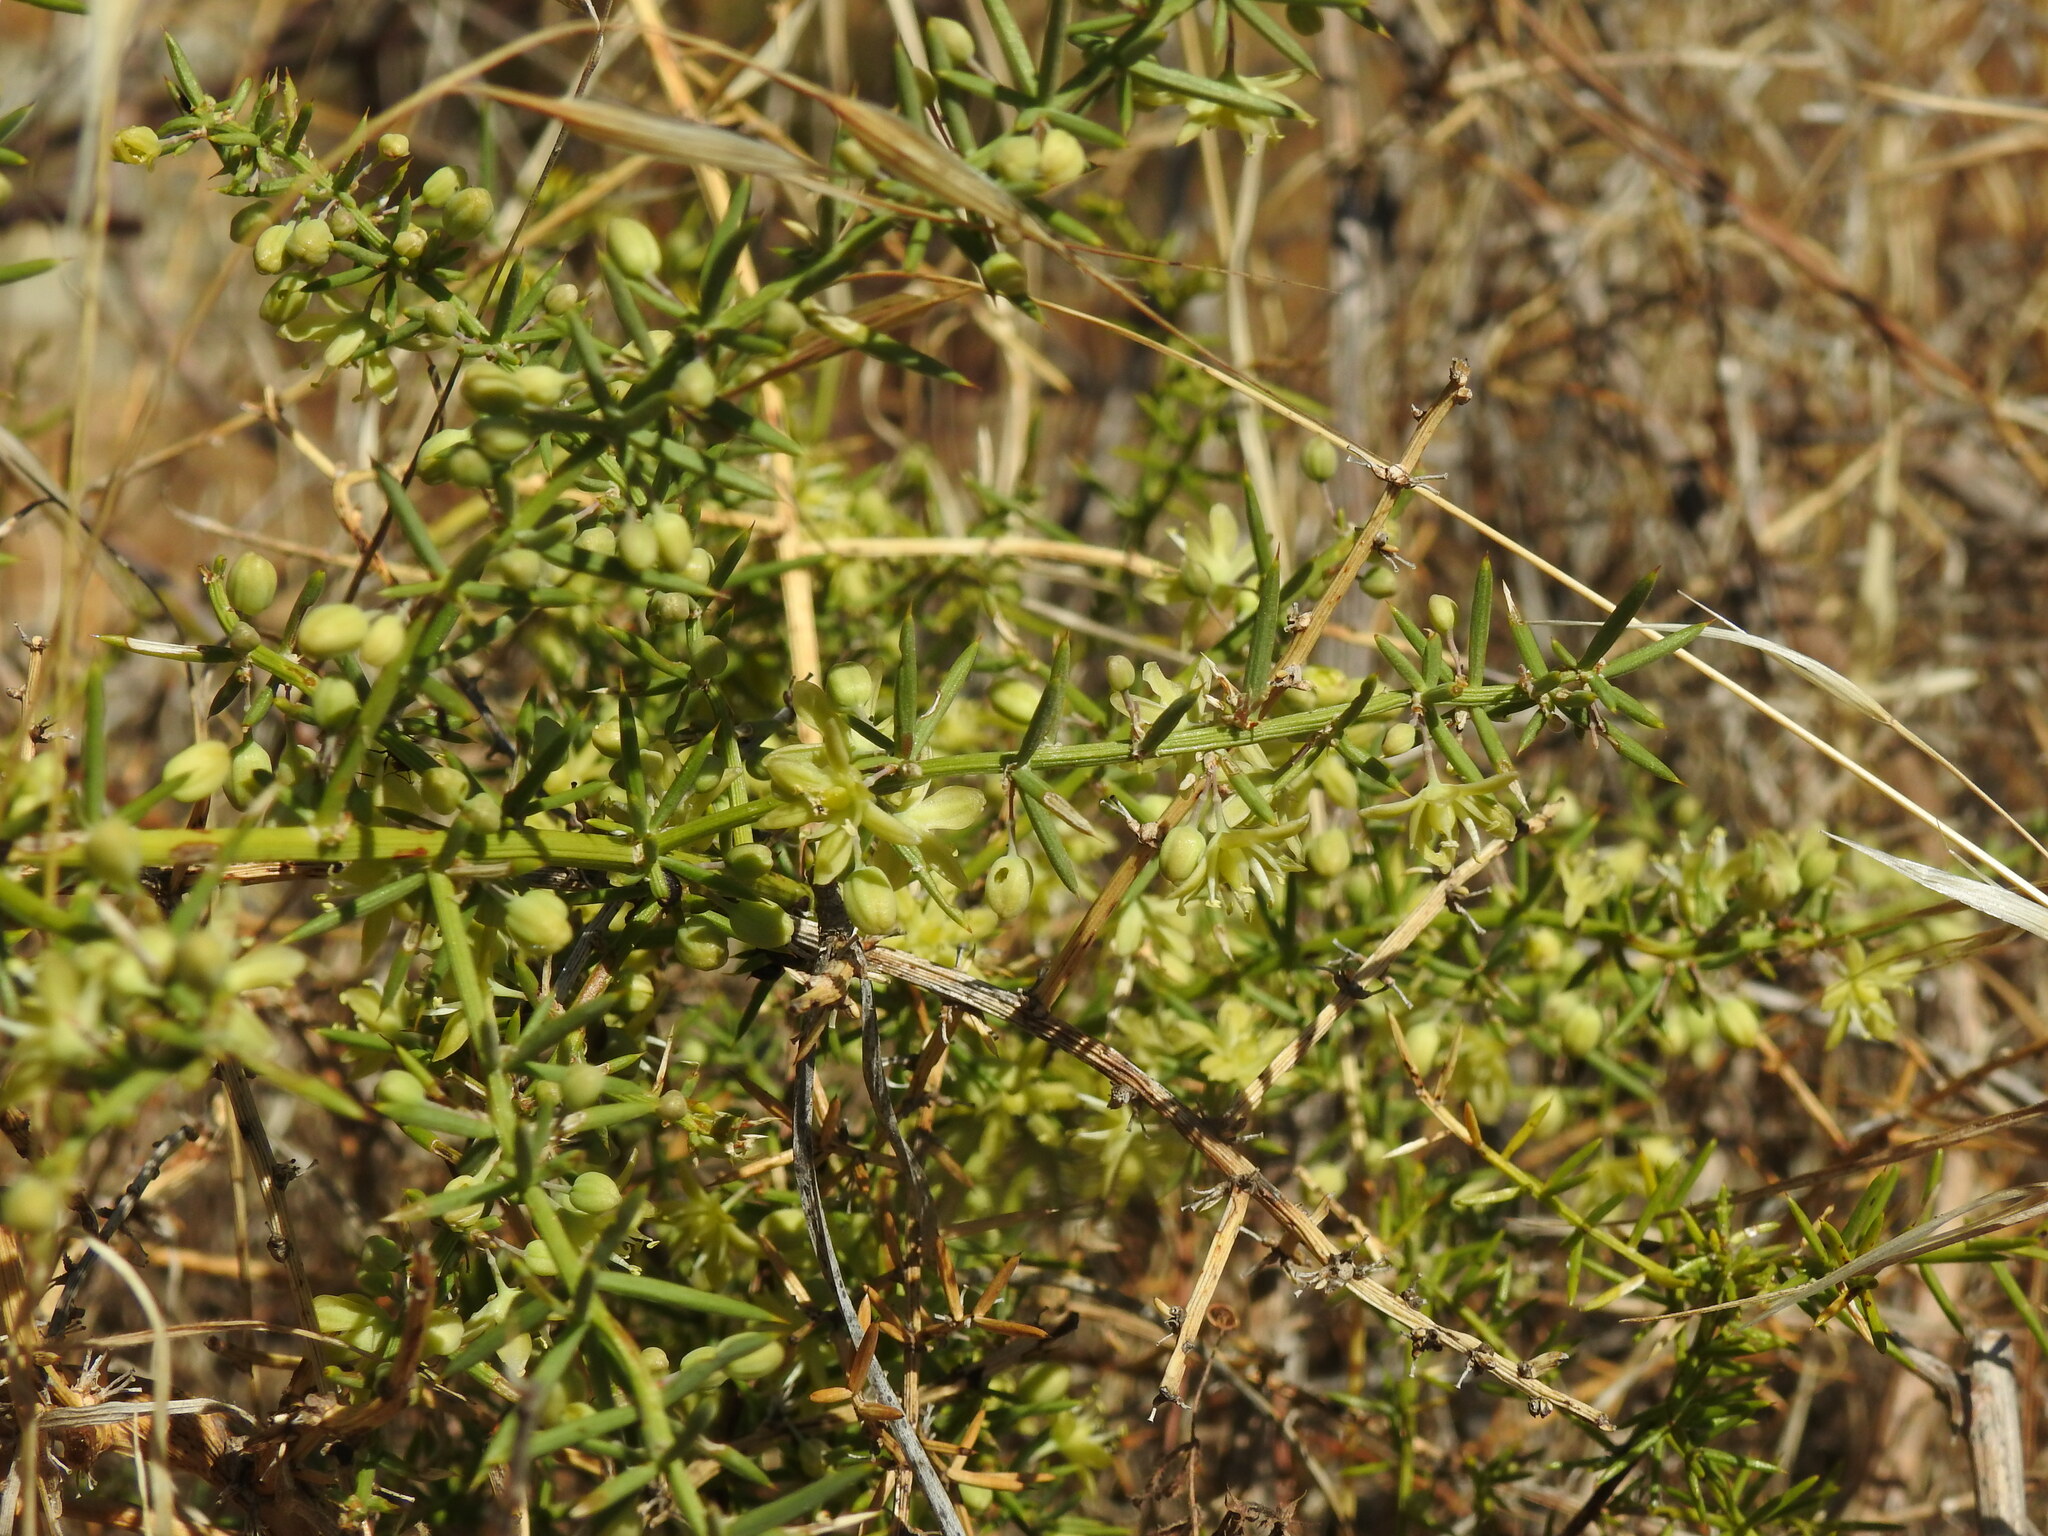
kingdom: Plantae
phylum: Tracheophyta
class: Liliopsida
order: Asparagales
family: Asparagaceae
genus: Asparagus
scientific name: Asparagus aphyllus
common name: Mediterranean asparagus
